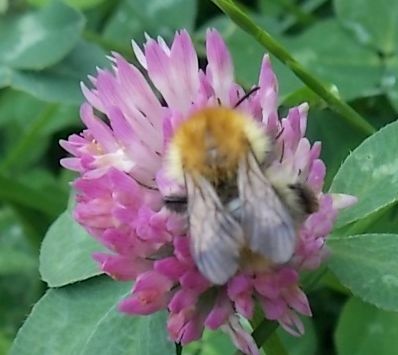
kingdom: Animalia
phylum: Arthropoda
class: Insecta
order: Hymenoptera
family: Apidae
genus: Bombus
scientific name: Bombus pascuorum
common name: Common carder bee
